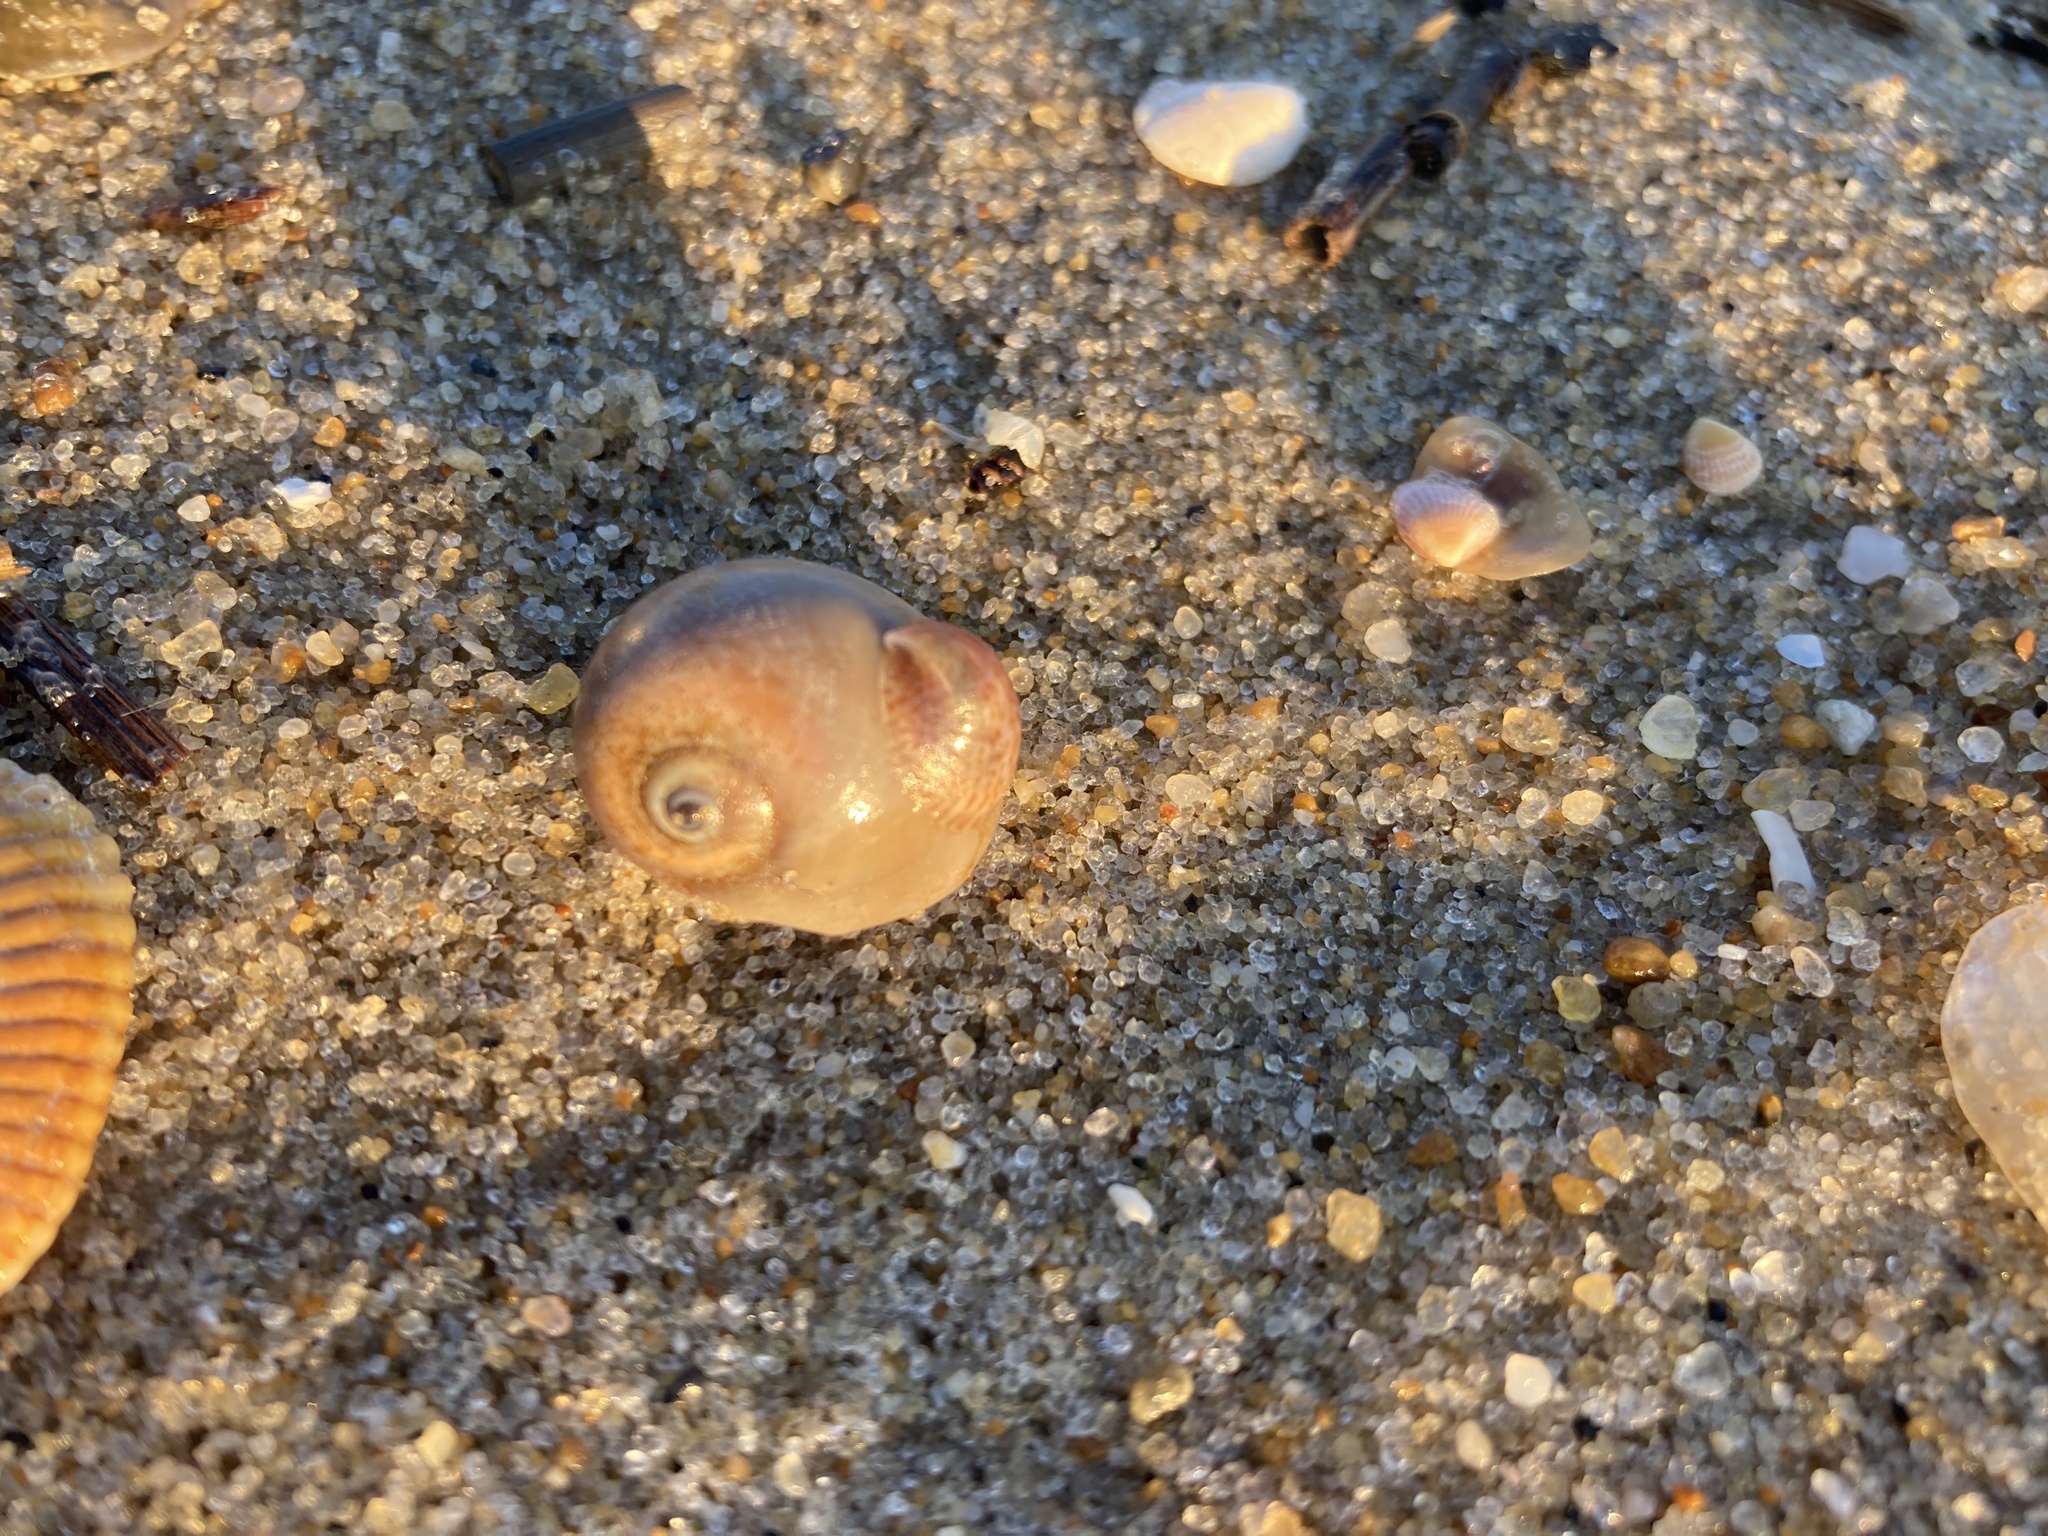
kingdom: Animalia
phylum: Mollusca
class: Gastropoda
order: Littorinimorpha
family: Naticidae
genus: Neverita
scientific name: Neverita duplicata
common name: Lobed moonsnail
